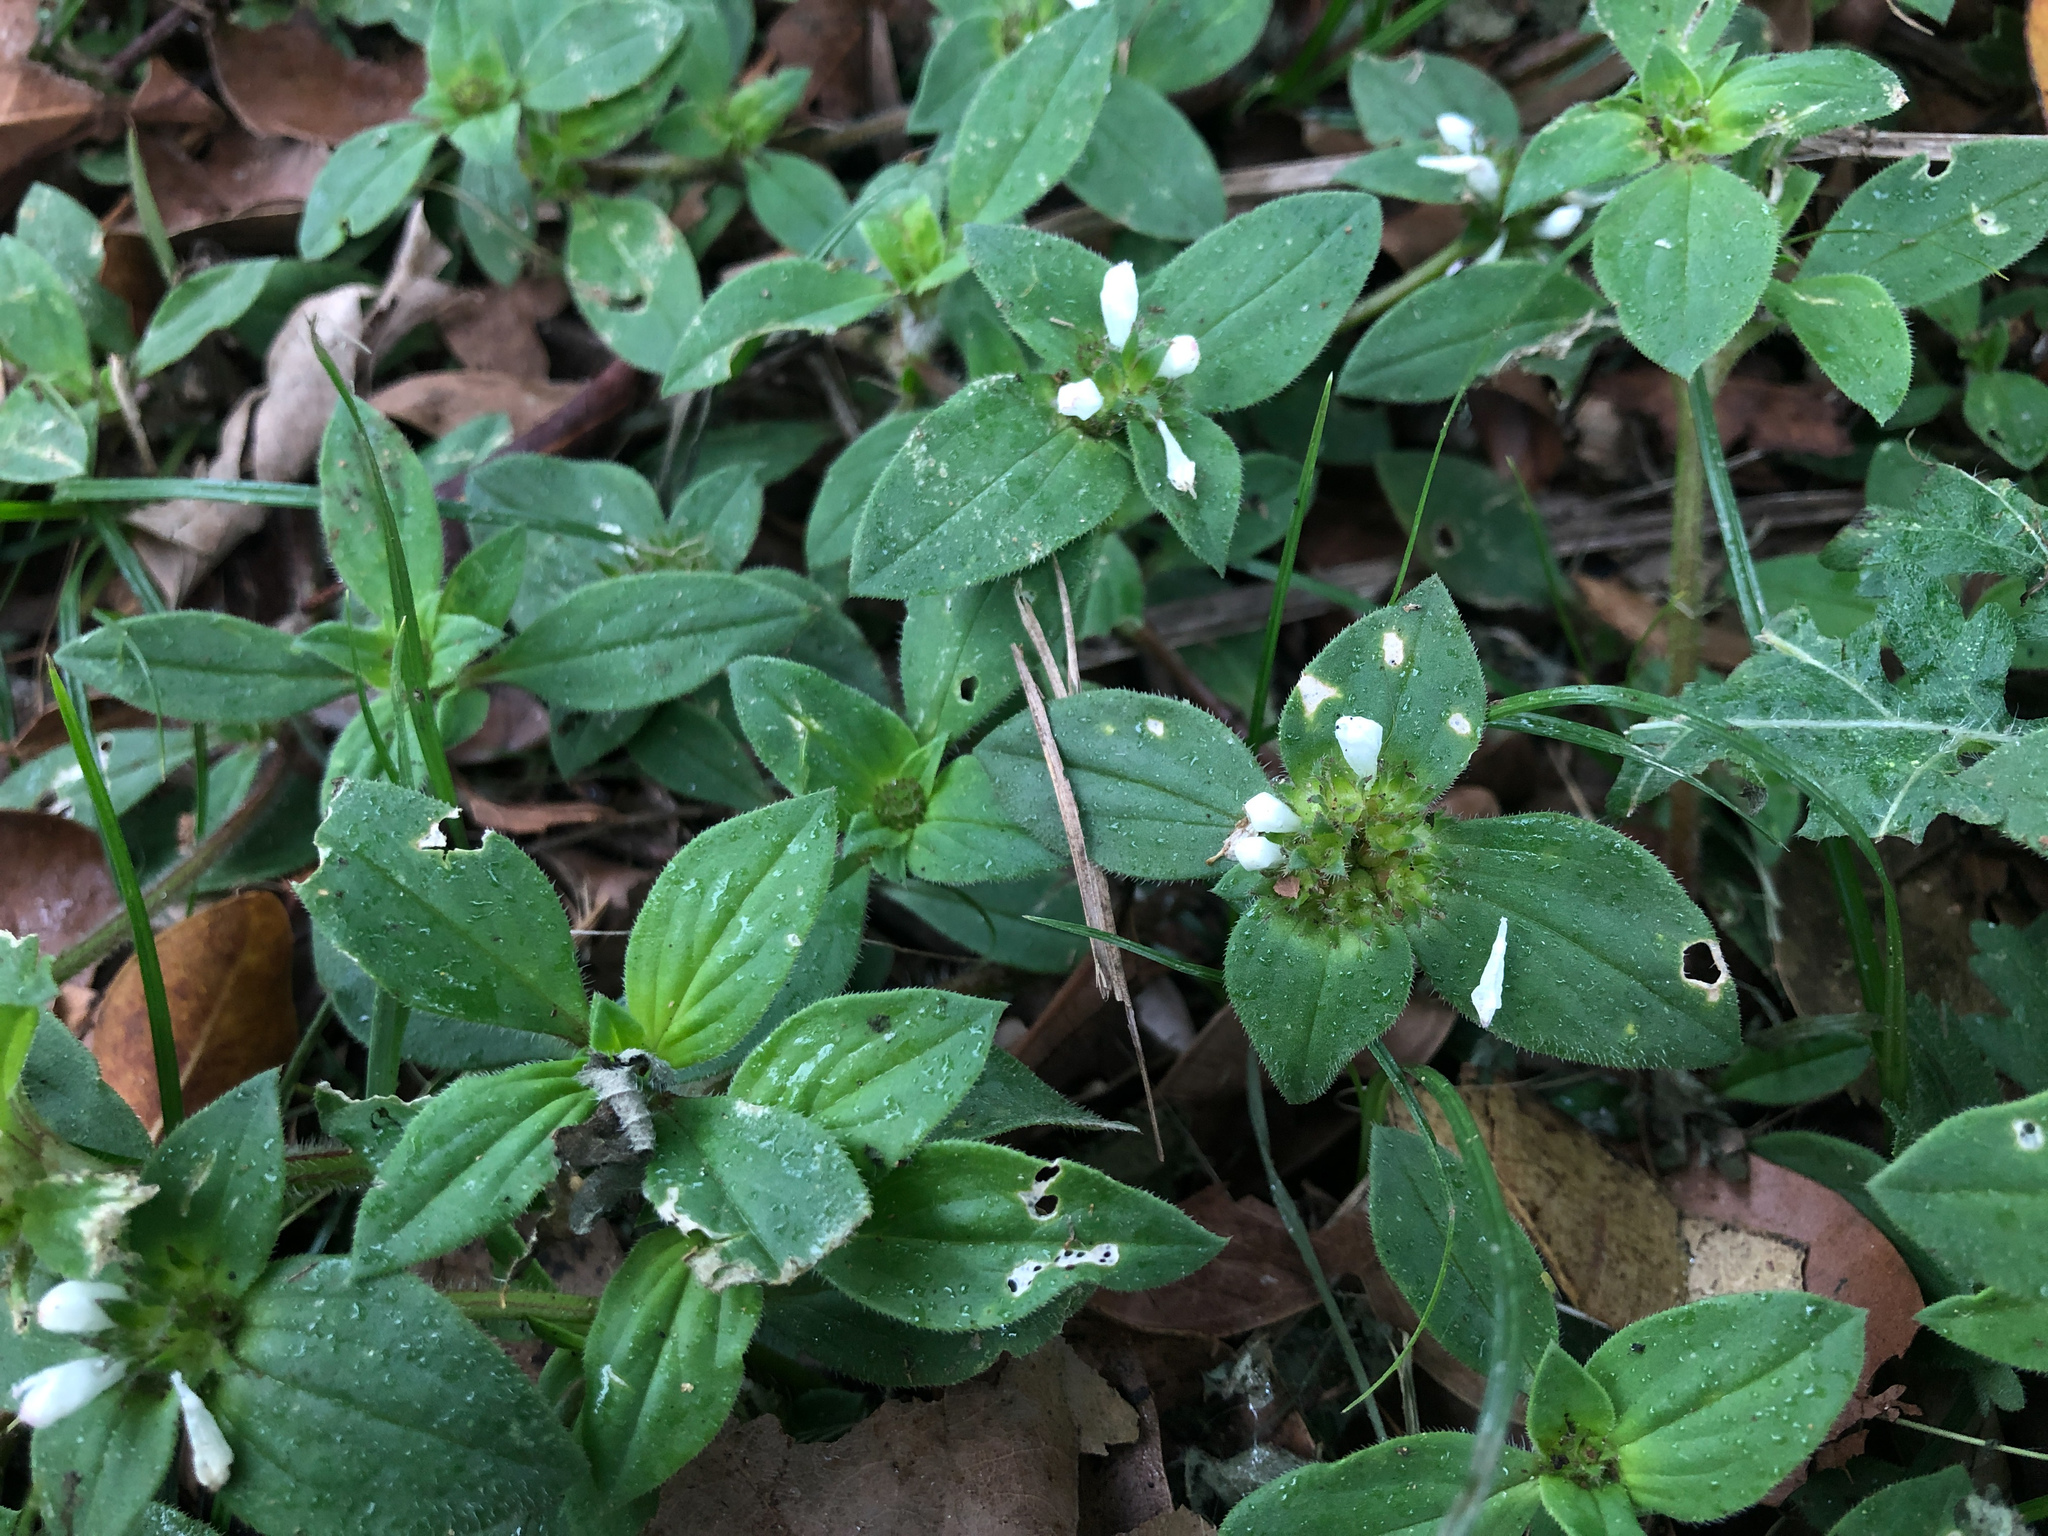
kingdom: Plantae
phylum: Tracheophyta
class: Magnoliopsida
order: Gentianales
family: Rubiaceae
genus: Richardia
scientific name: Richardia scabra
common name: Rough mexican clover
